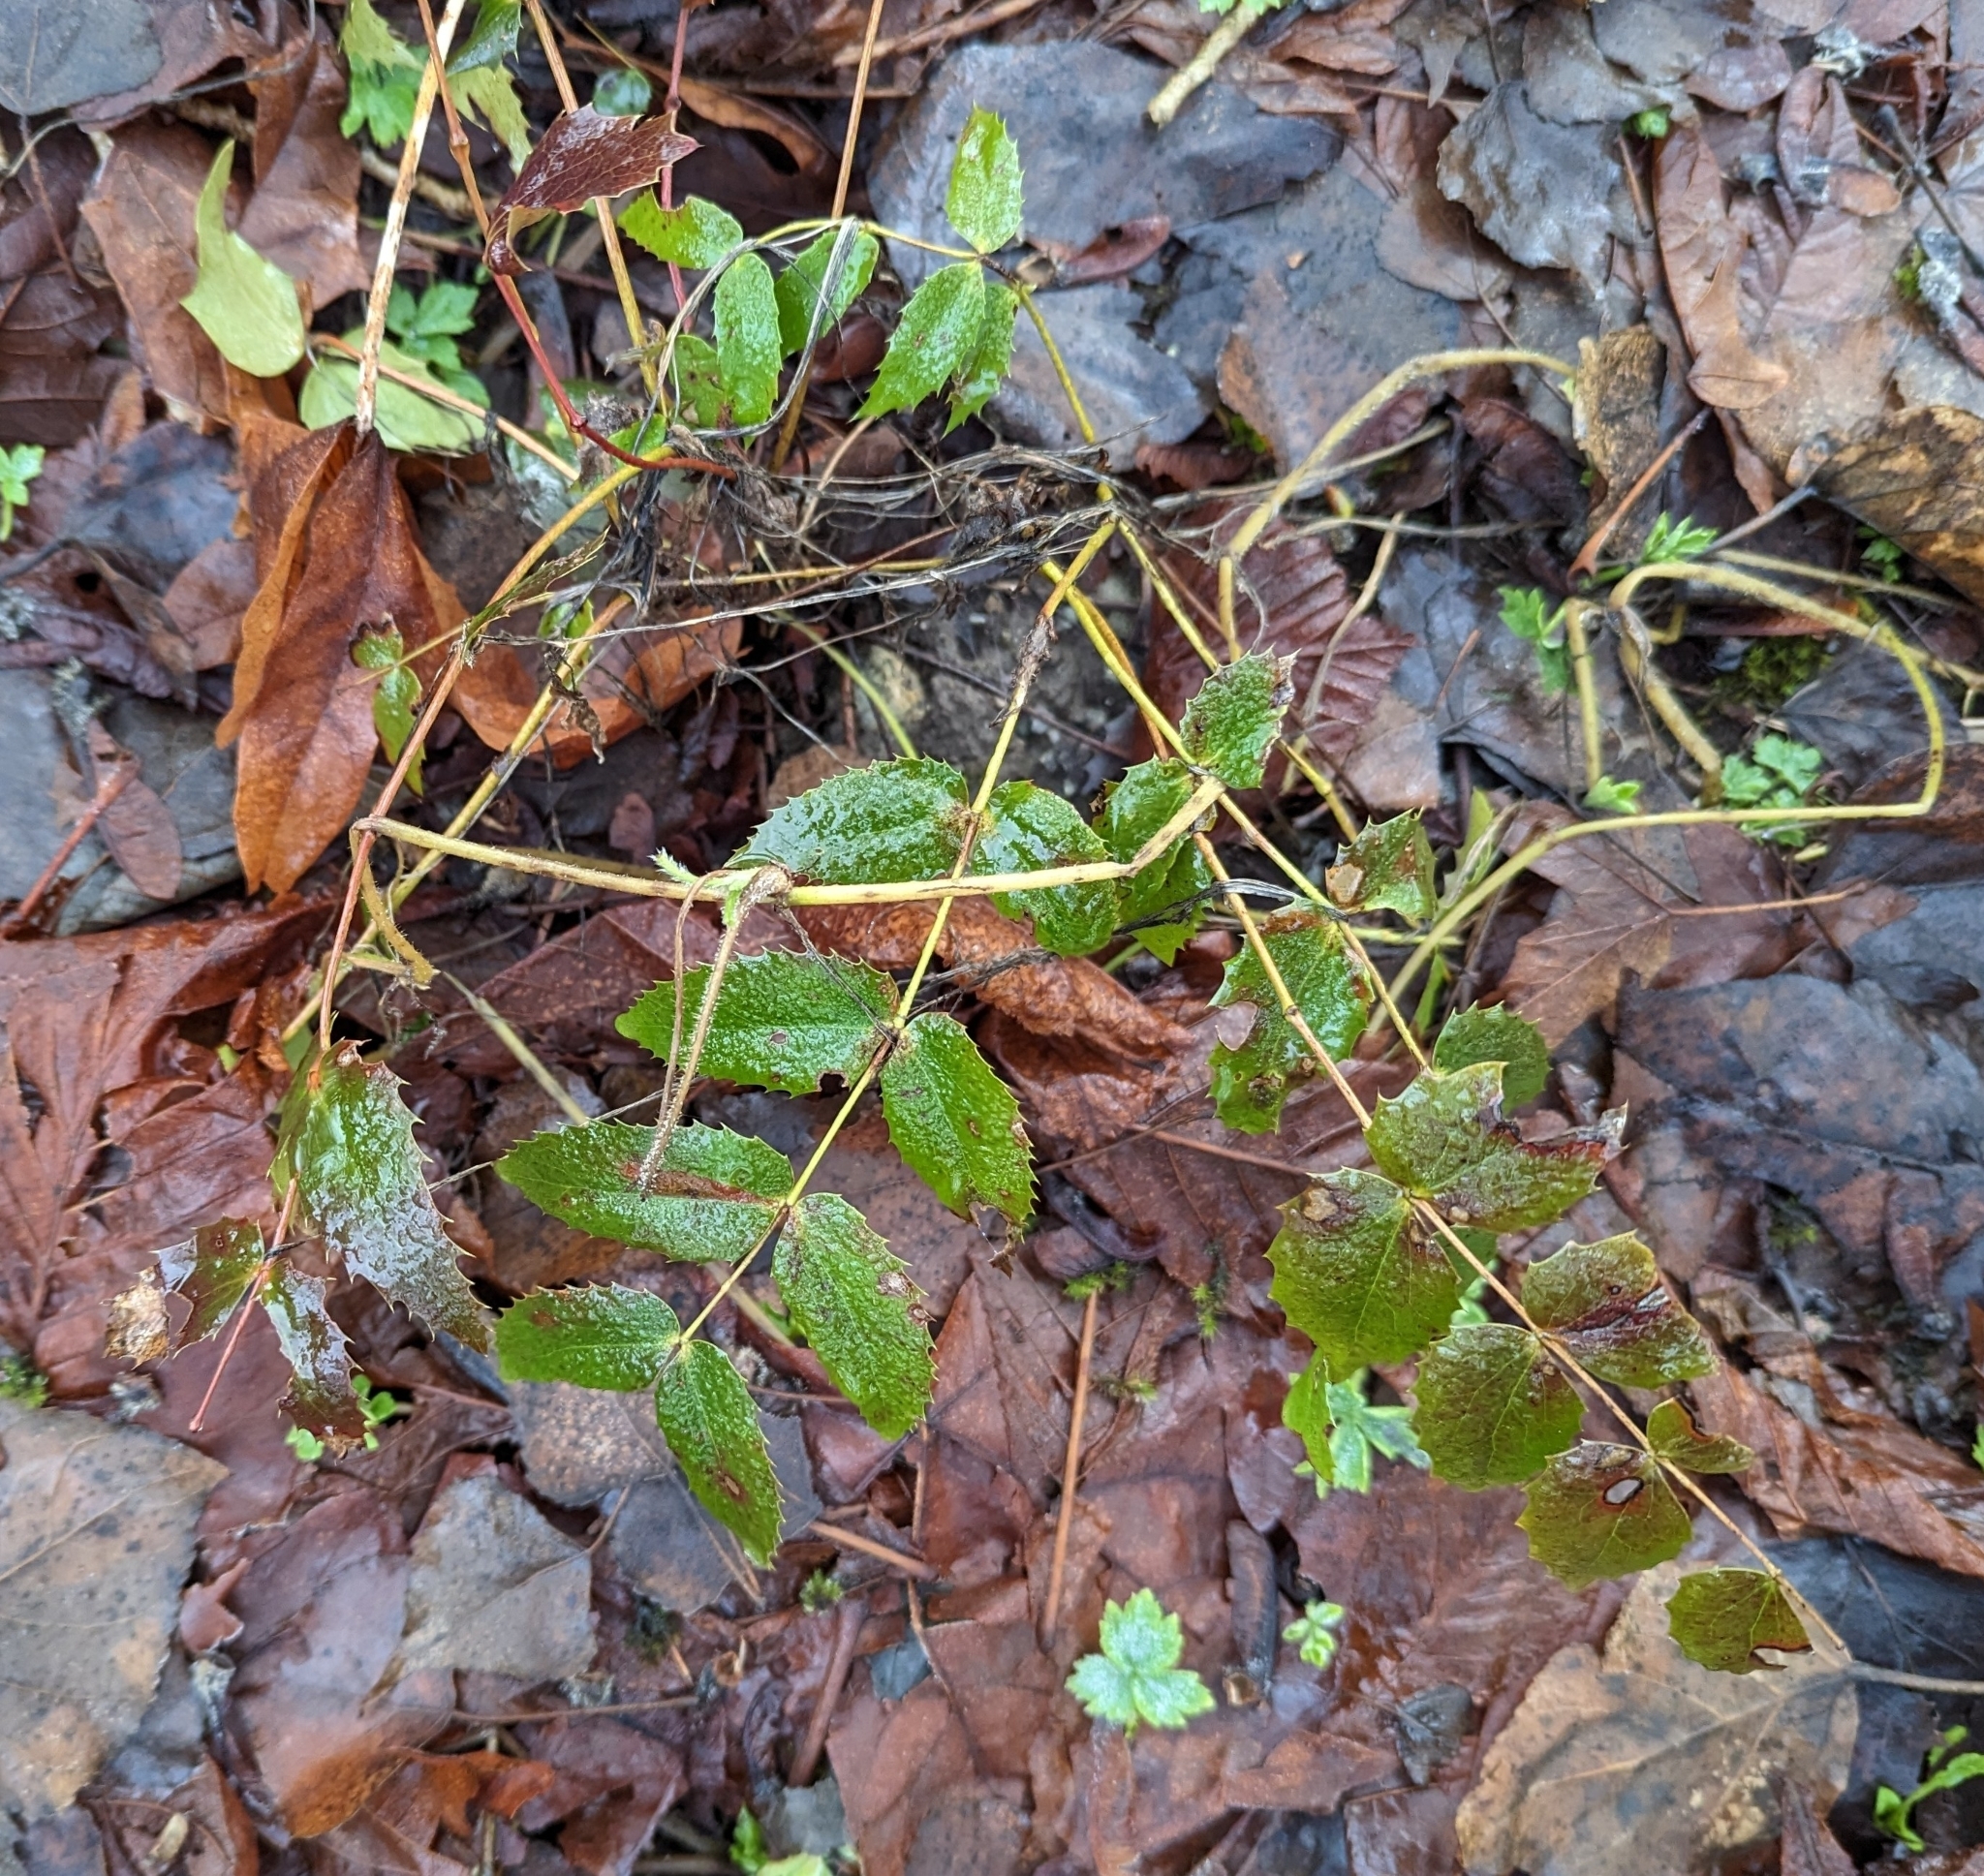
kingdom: Plantae
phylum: Tracheophyta
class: Magnoliopsida
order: Ranunculales
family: Berberidaceae
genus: Mahonia
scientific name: Mahonia nervosa
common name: Cascade oregon-grape
